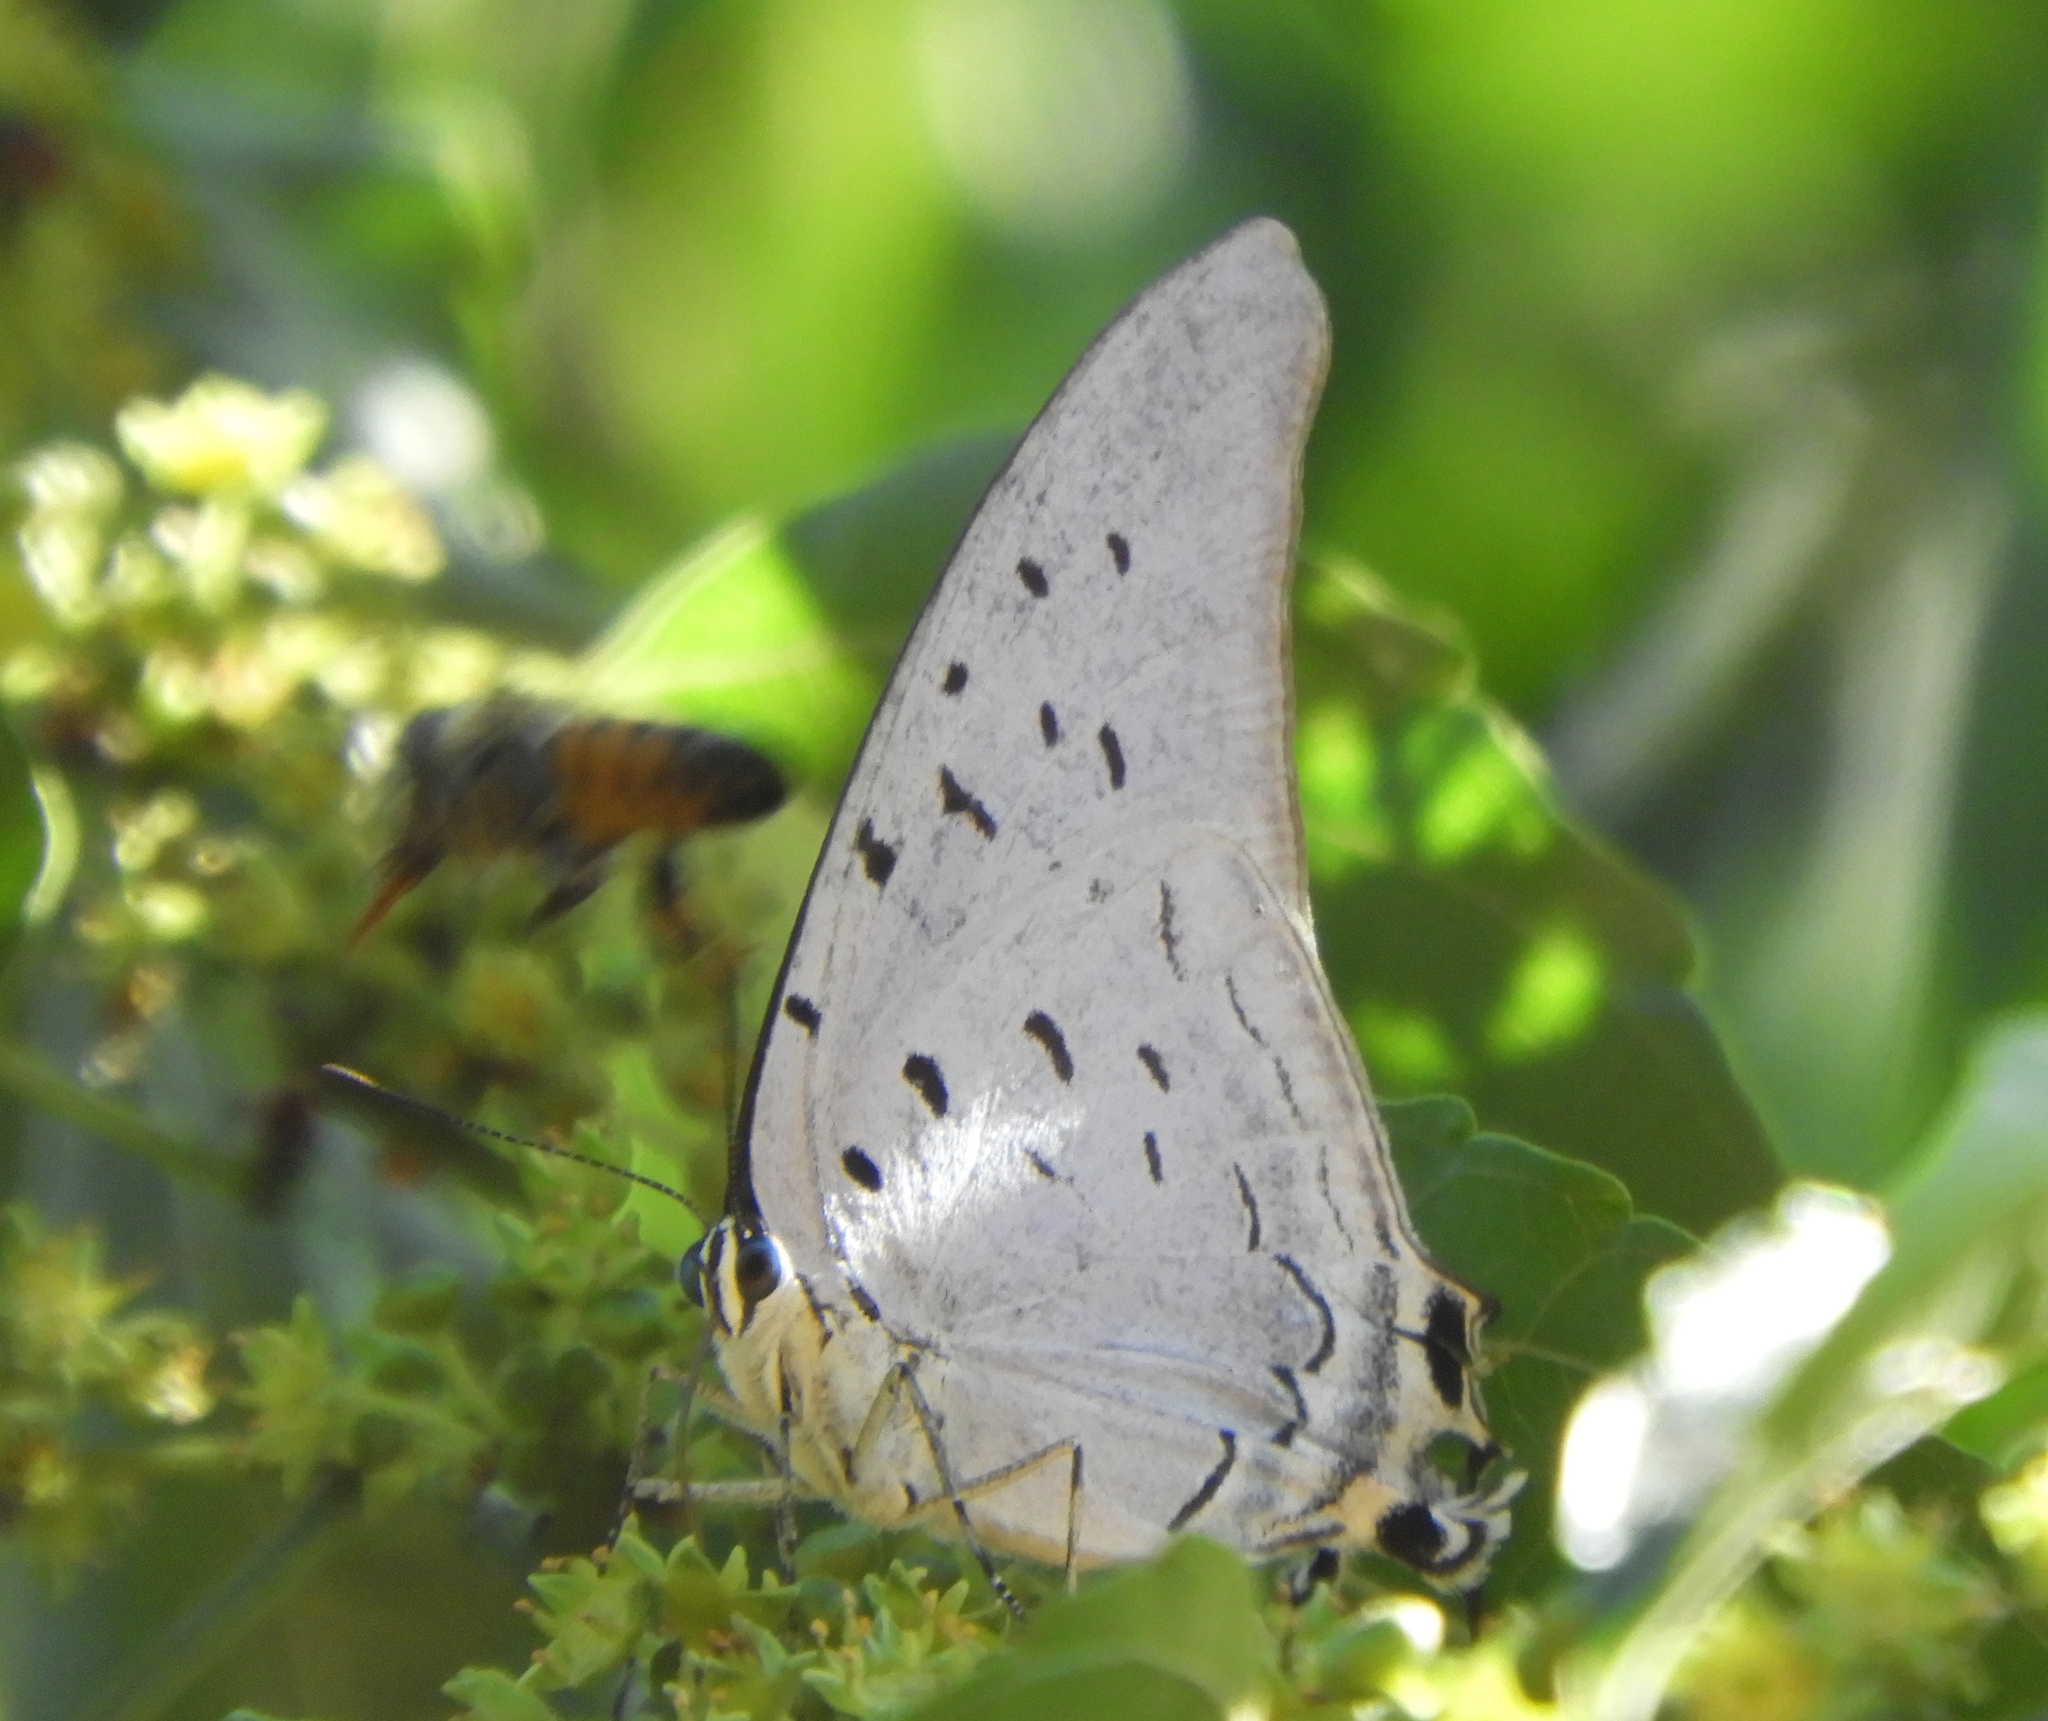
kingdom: Animalia
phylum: Arthropoda
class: Insecta
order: Lepidoptera
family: Lycaenidae
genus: Pseudolycaena
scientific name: Pseudolycaena damo
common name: Sky-blue hairstreak
